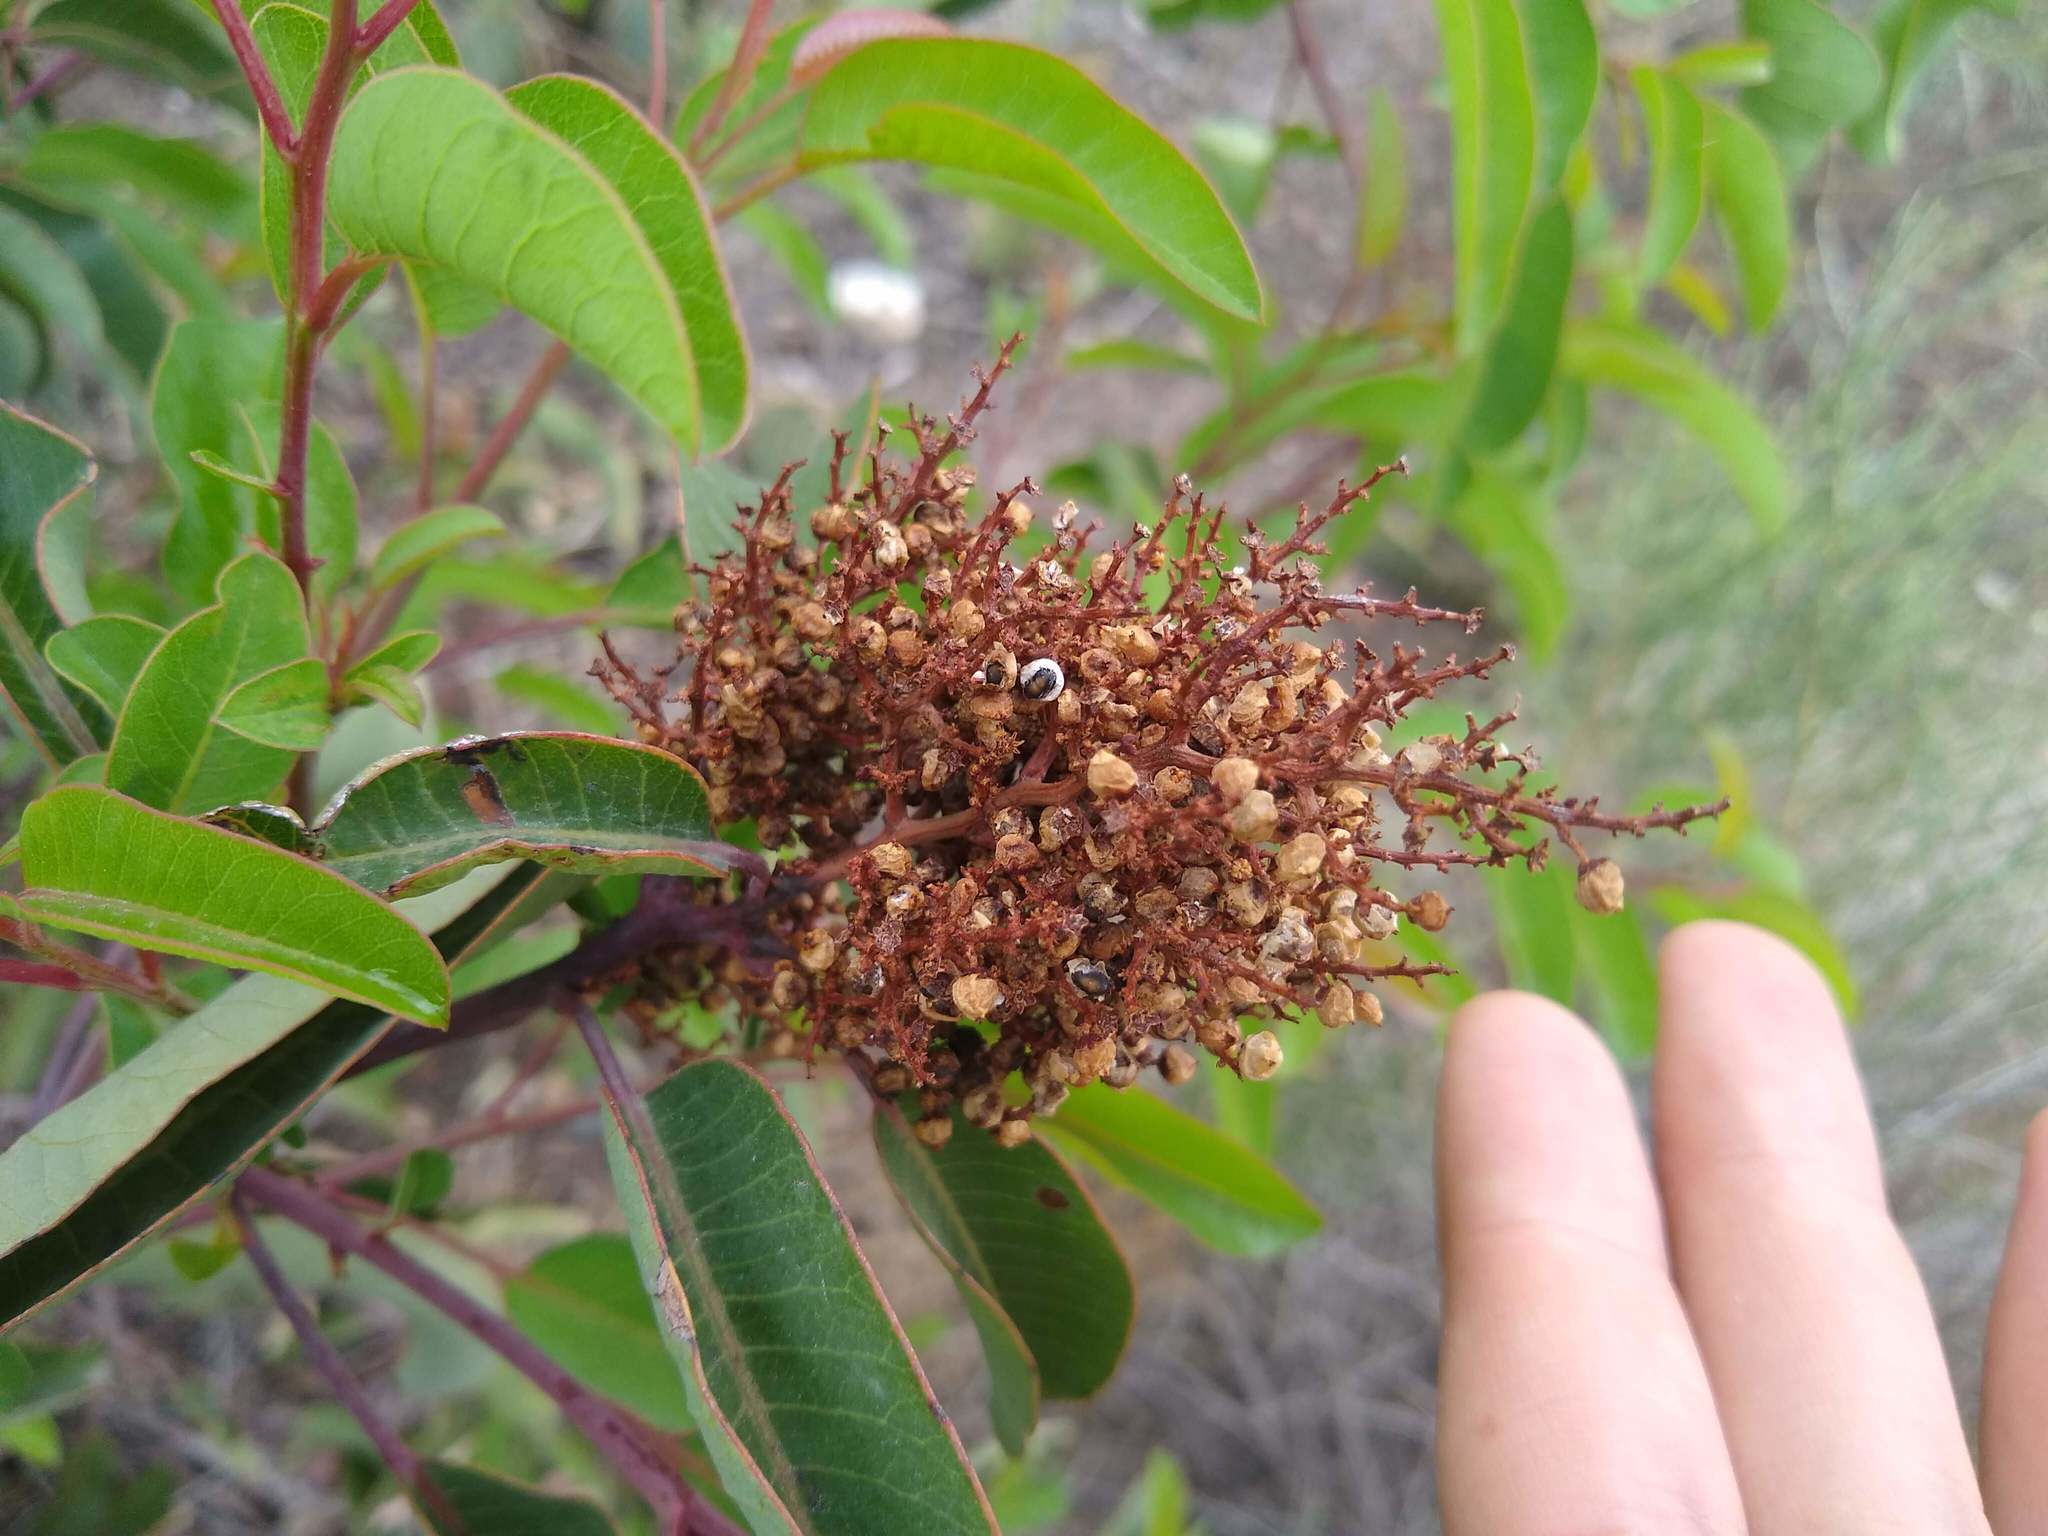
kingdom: Plantae
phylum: Tracheophyta
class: Magnoliopsida
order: Sapindales
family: Anacardiaceae
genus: Malosma
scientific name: Malosma laurina
